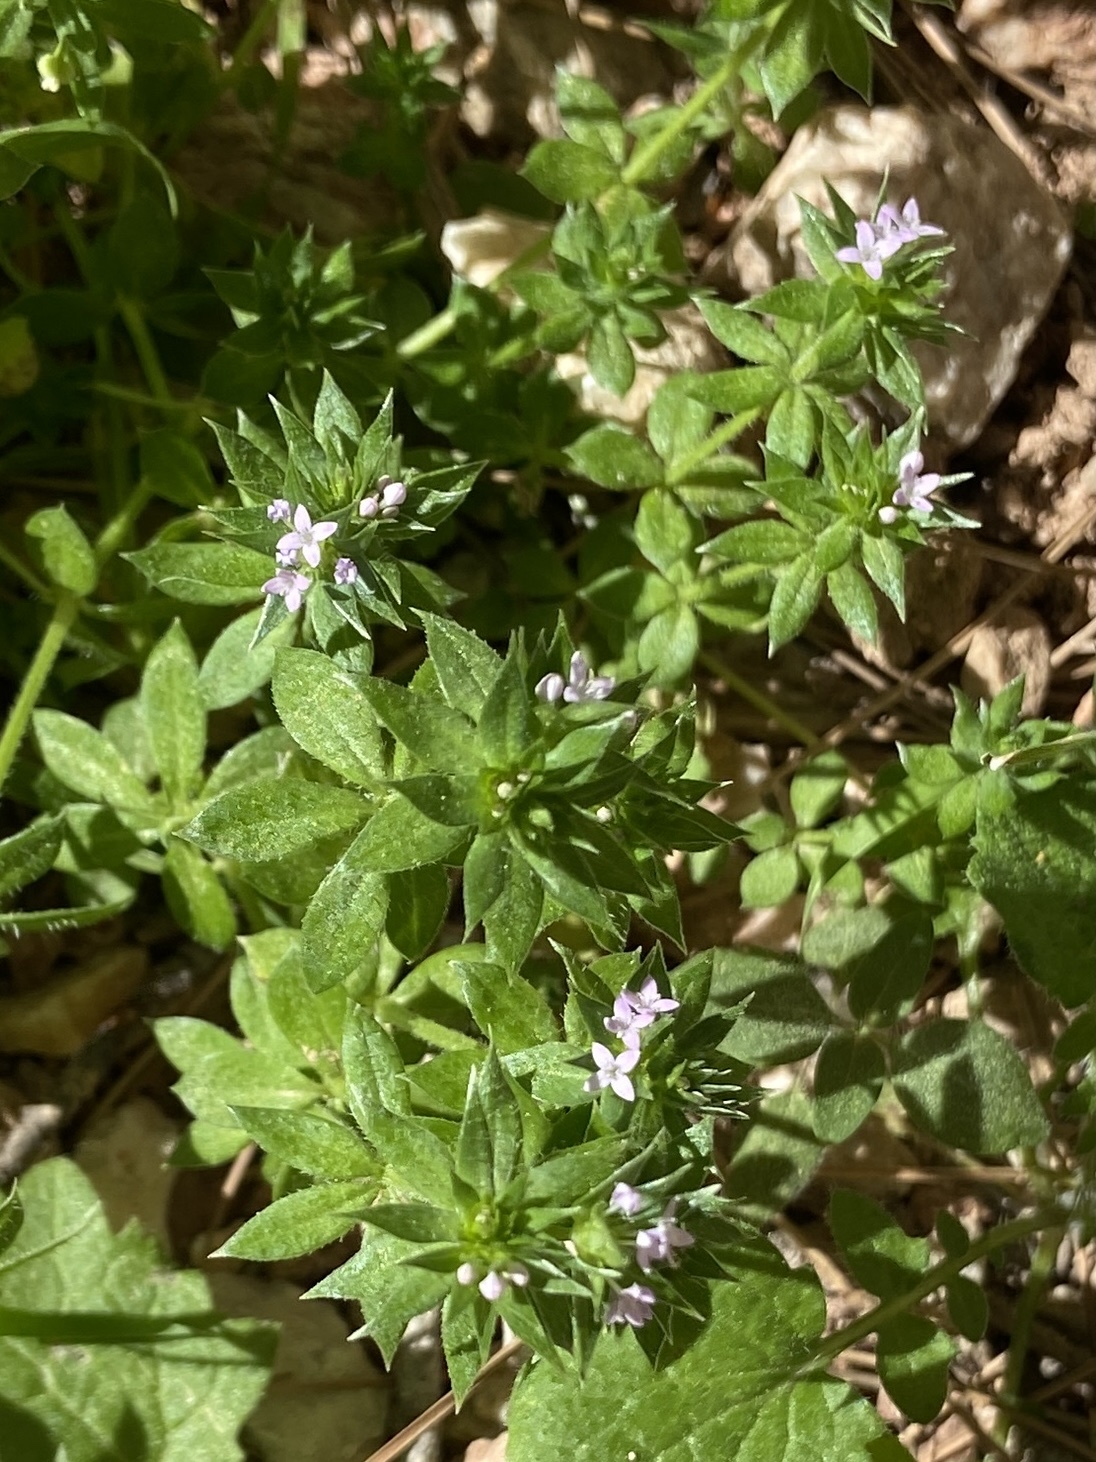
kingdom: Plantae
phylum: Tracheophyta
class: Magnoliopsida
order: Gentianales
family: Rubiaceae
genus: Sherardia
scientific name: Sherardia arvensis
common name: Field madder
